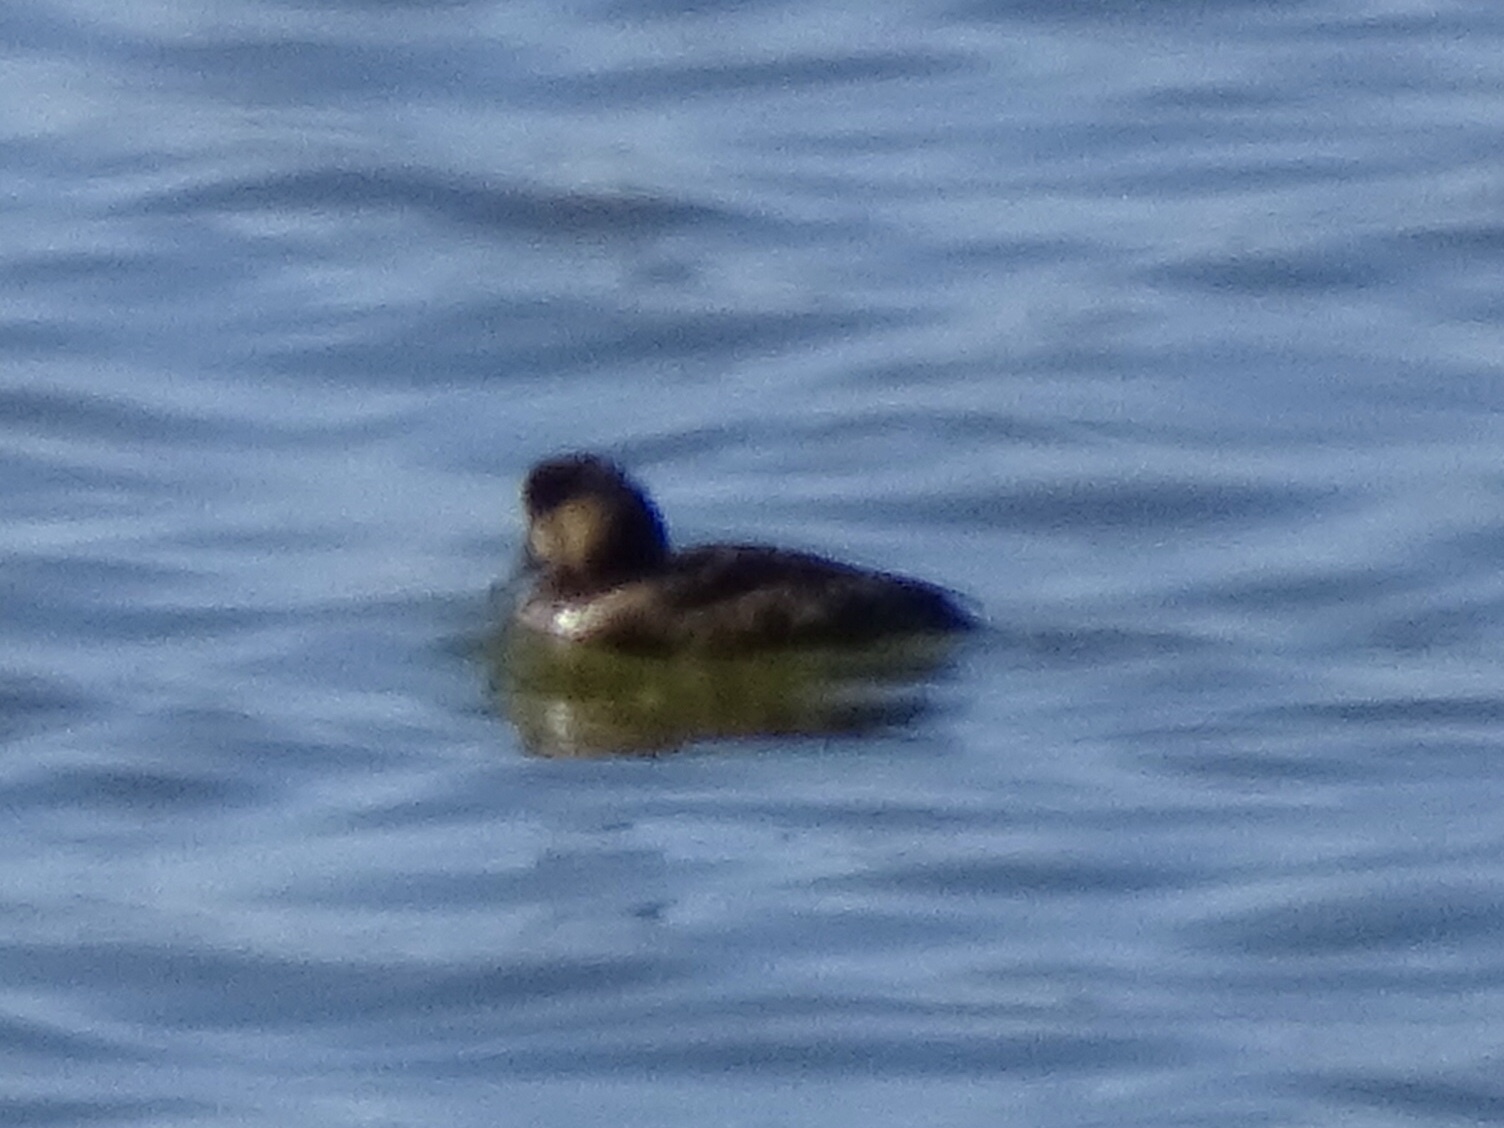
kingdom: Animalia
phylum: Chordata
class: Aves
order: Anseriformes
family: Anatidae
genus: Aythya
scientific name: Aythya collaris
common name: Ring-necked duck
